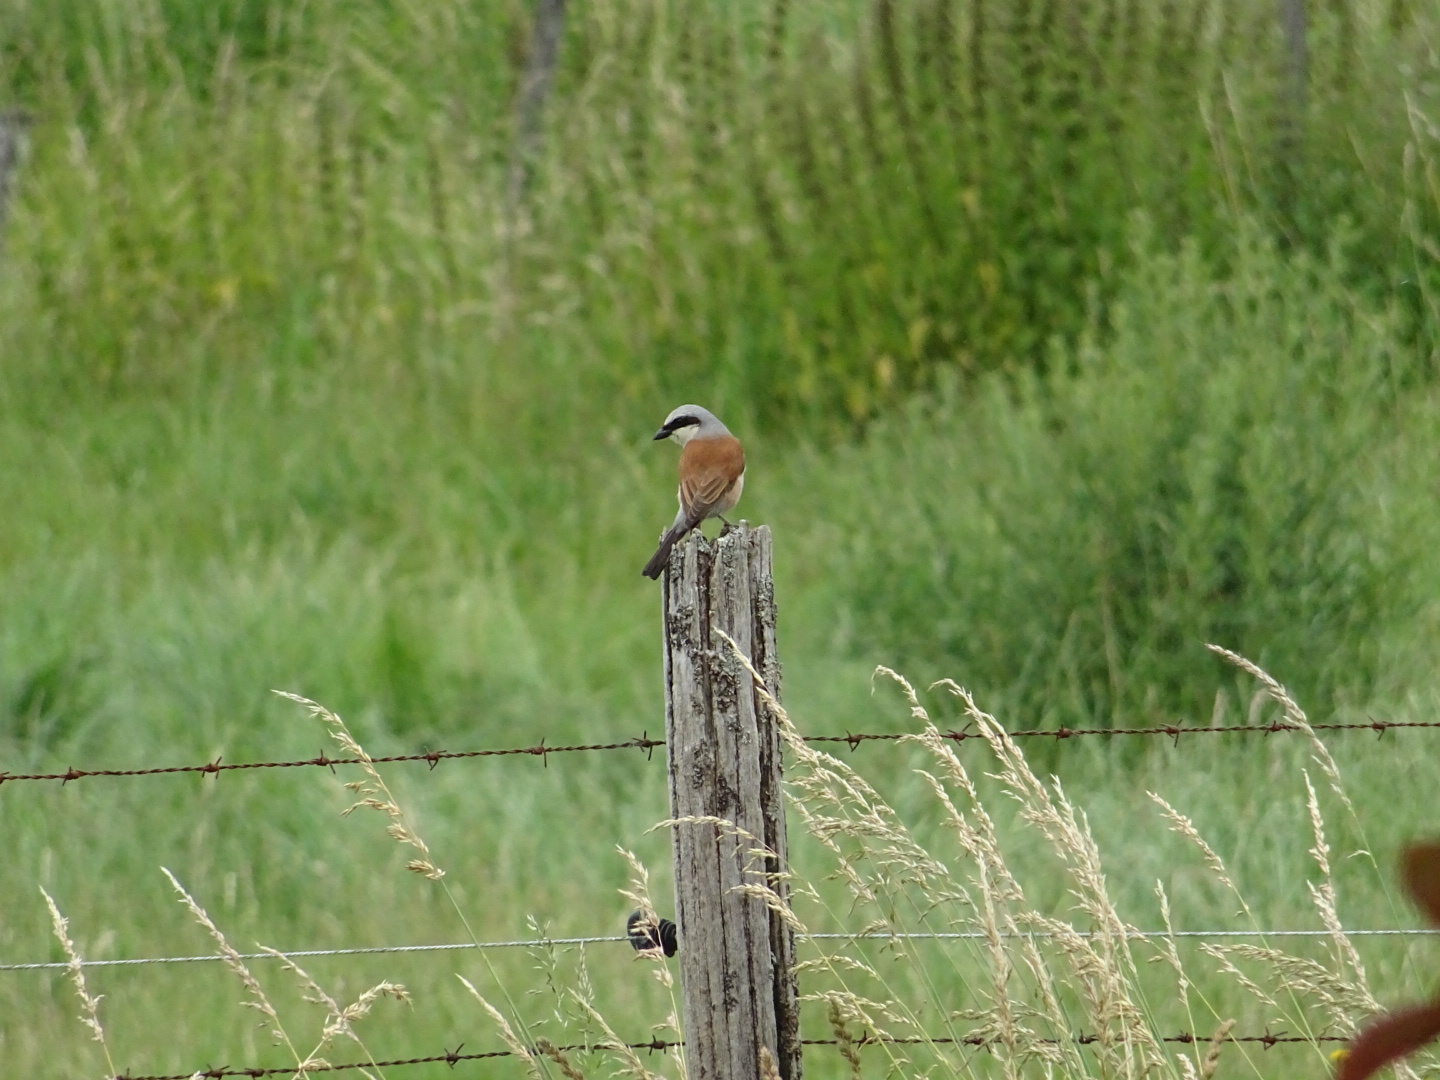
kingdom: Animalia
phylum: Chordata
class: Aves
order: Passeriformes
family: Laniidae
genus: Lanius
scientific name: Lanius collurio
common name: Red-backed shrike
